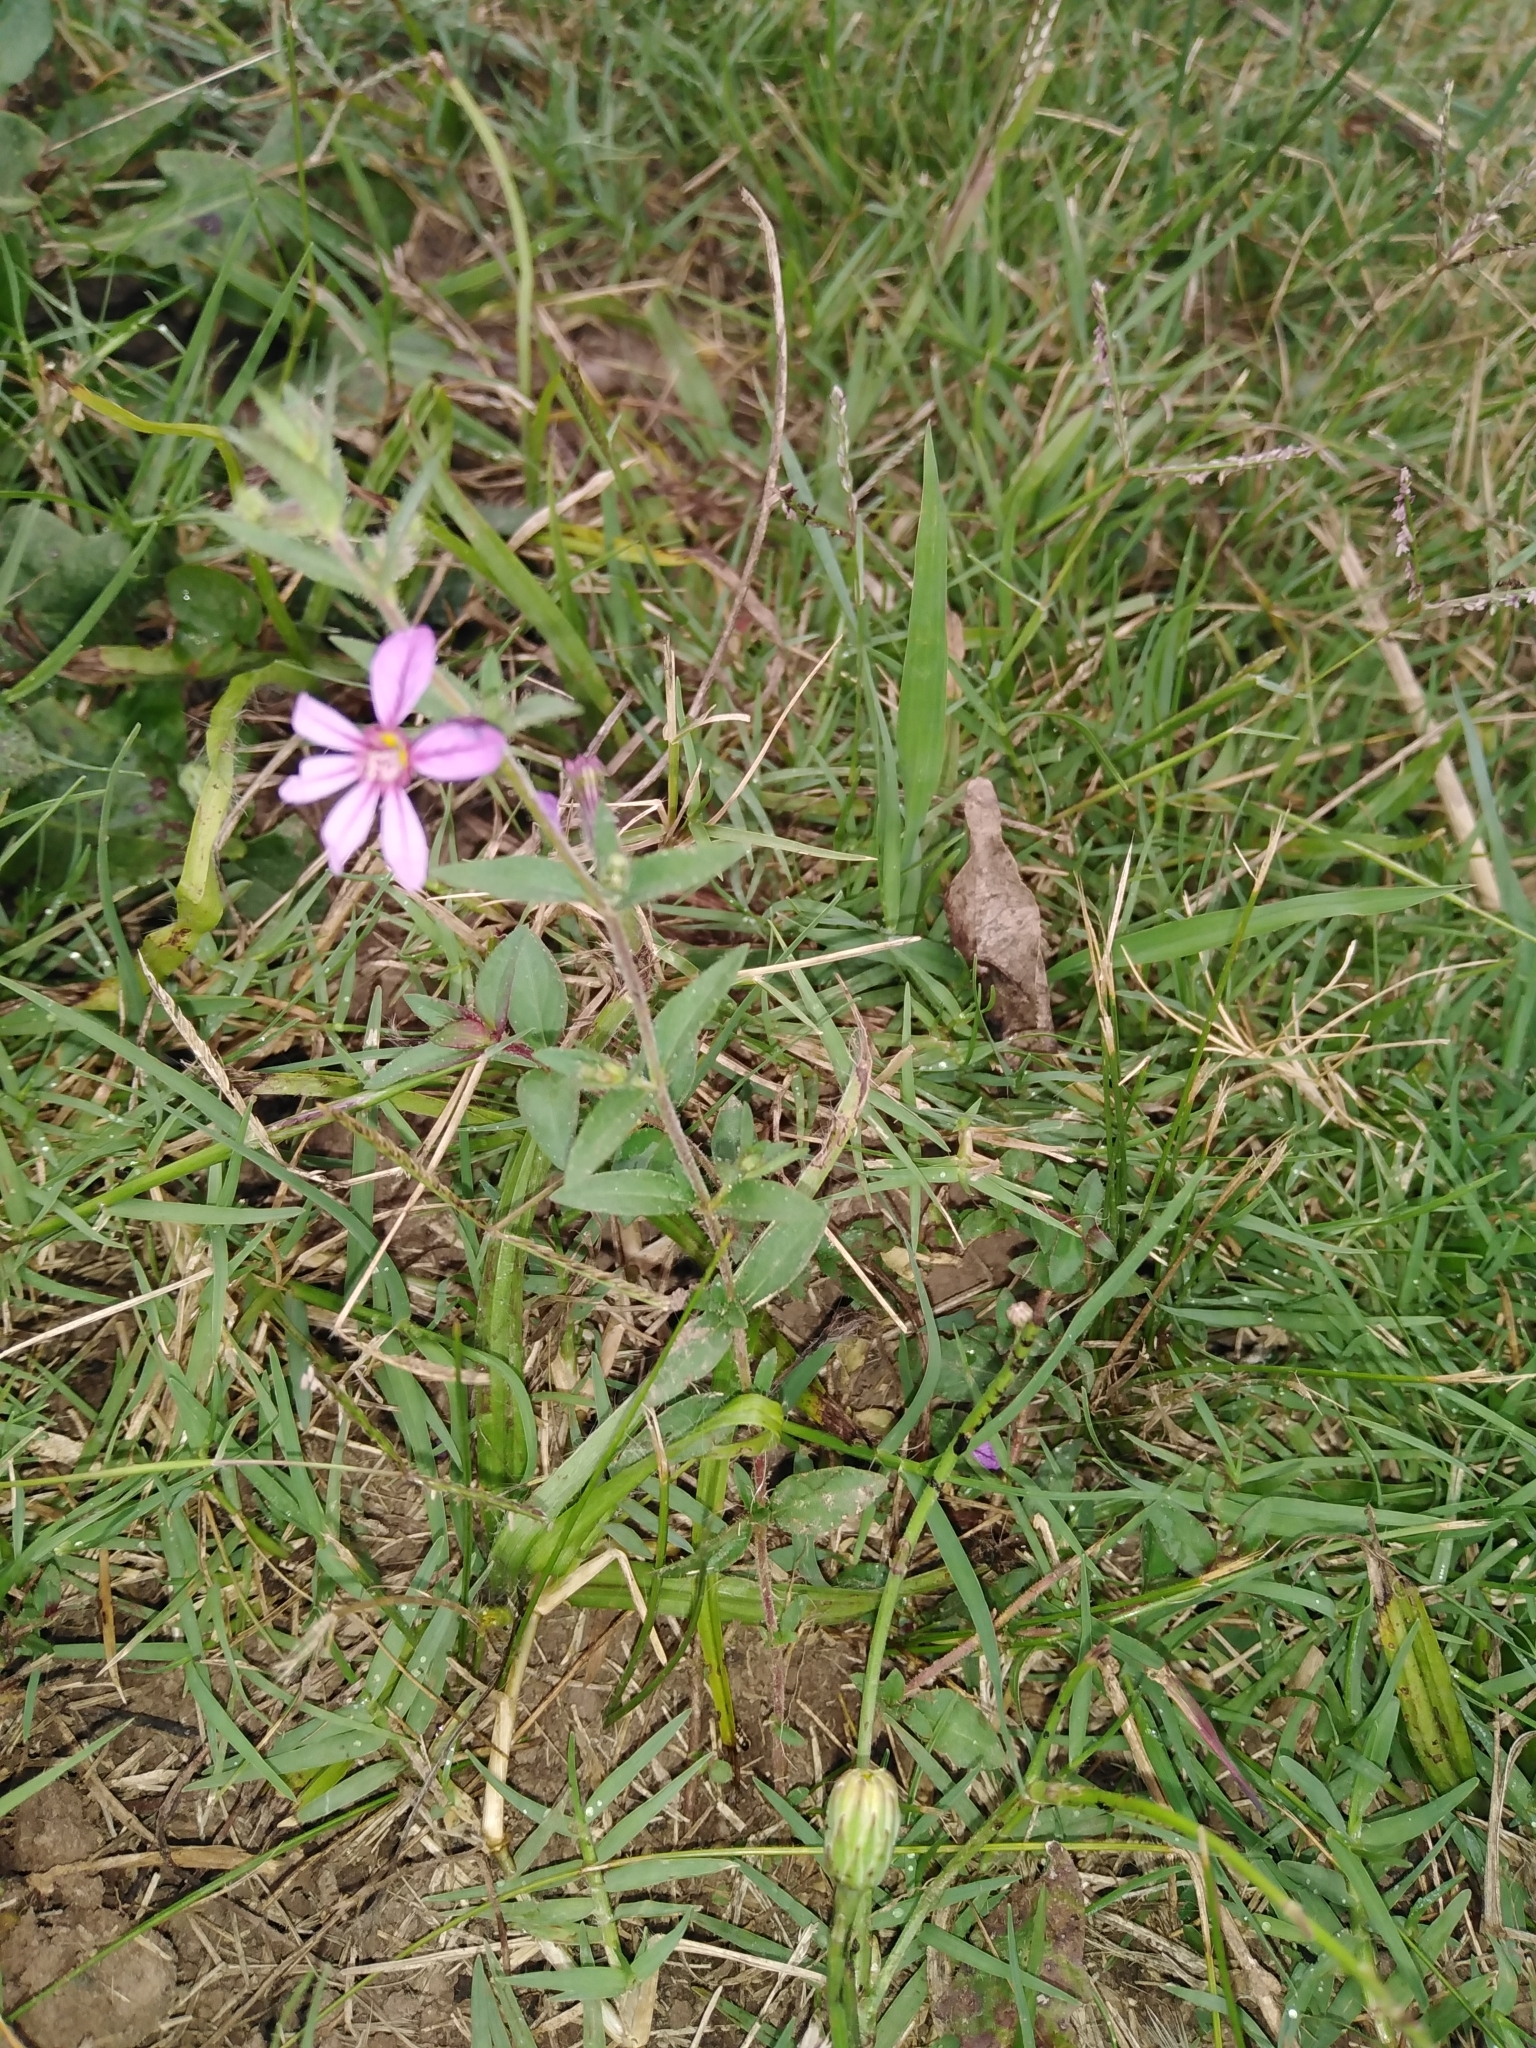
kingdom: Plantae
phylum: Tracheophyta
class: Magnoliopsida
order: Myrtales
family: Lythraceae
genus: Cuphea
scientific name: Cuphea glutinosa
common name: Sticky waxweed
